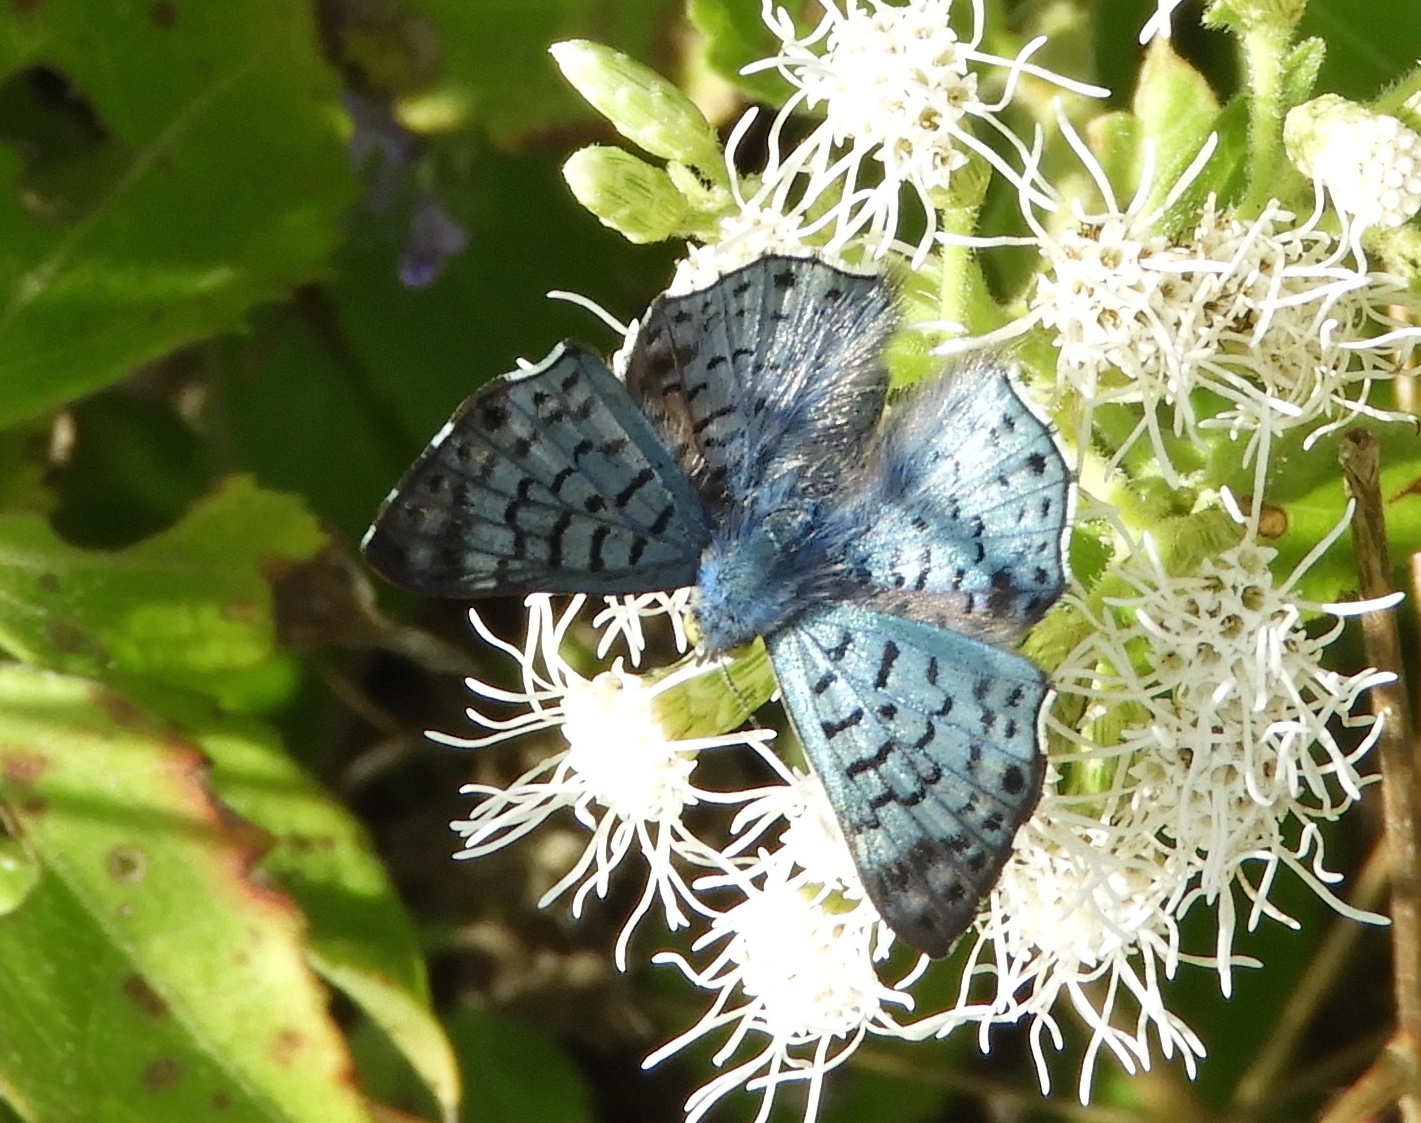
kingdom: Animalia
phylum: Arthropoda
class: Insecta
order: Lepidoptera
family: Riodinidae
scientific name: Riodinidae
